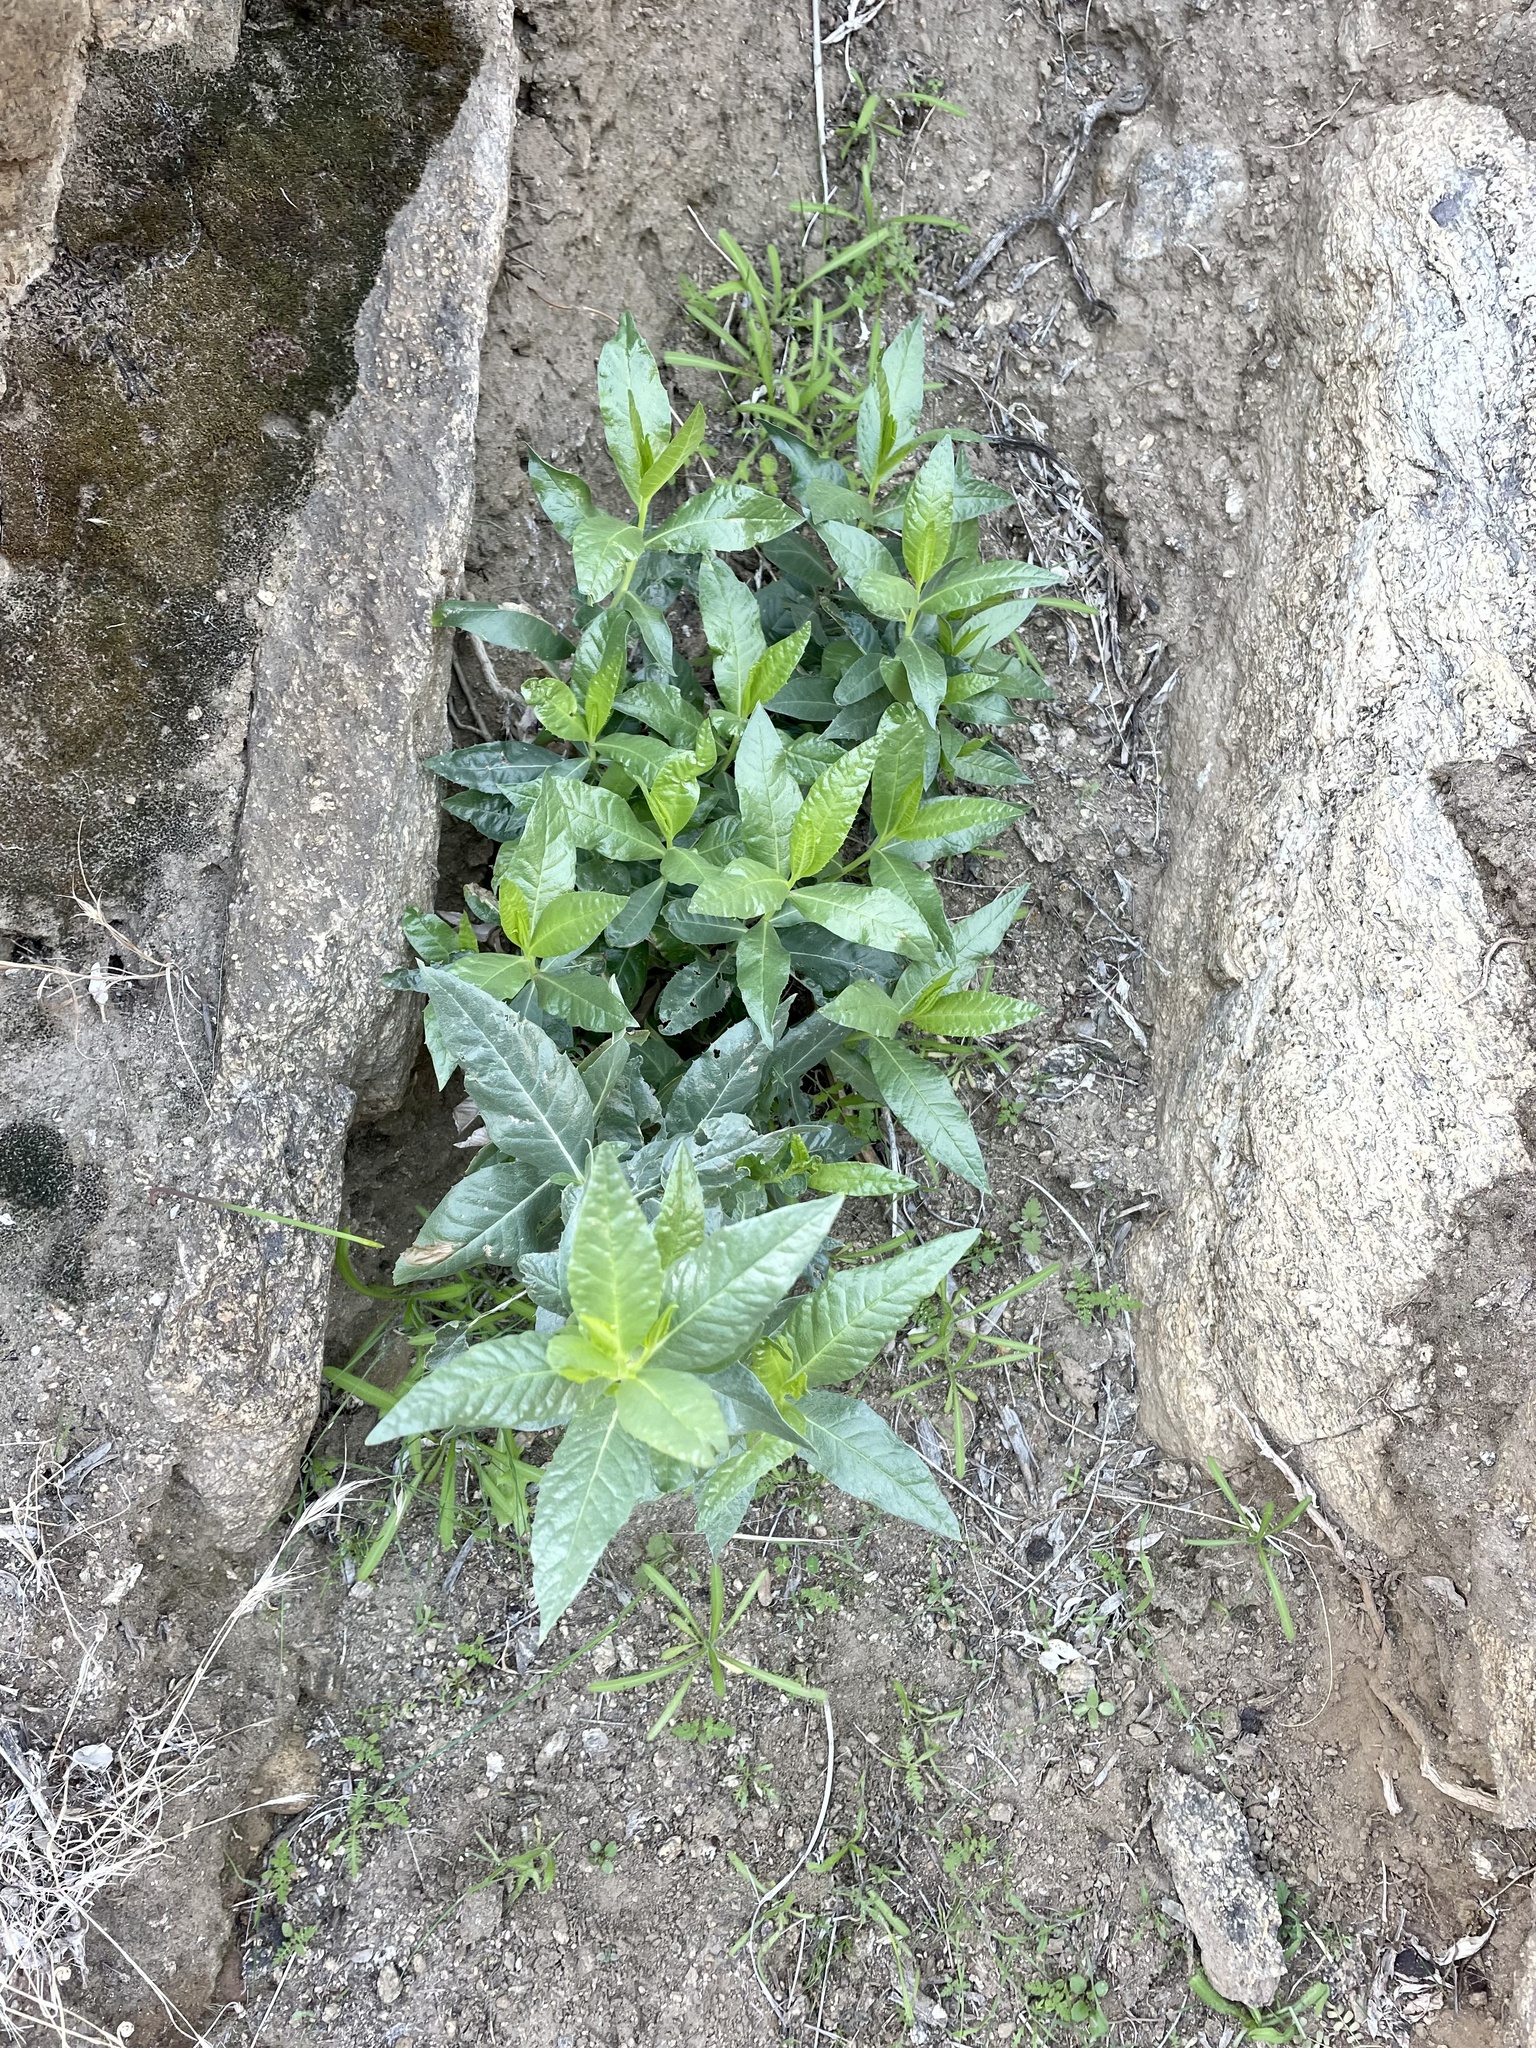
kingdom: Plantae
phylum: Tracheophyta
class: Magnoliopsida
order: Asterales
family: Asteraceae
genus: Trixis
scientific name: Trixis californica
